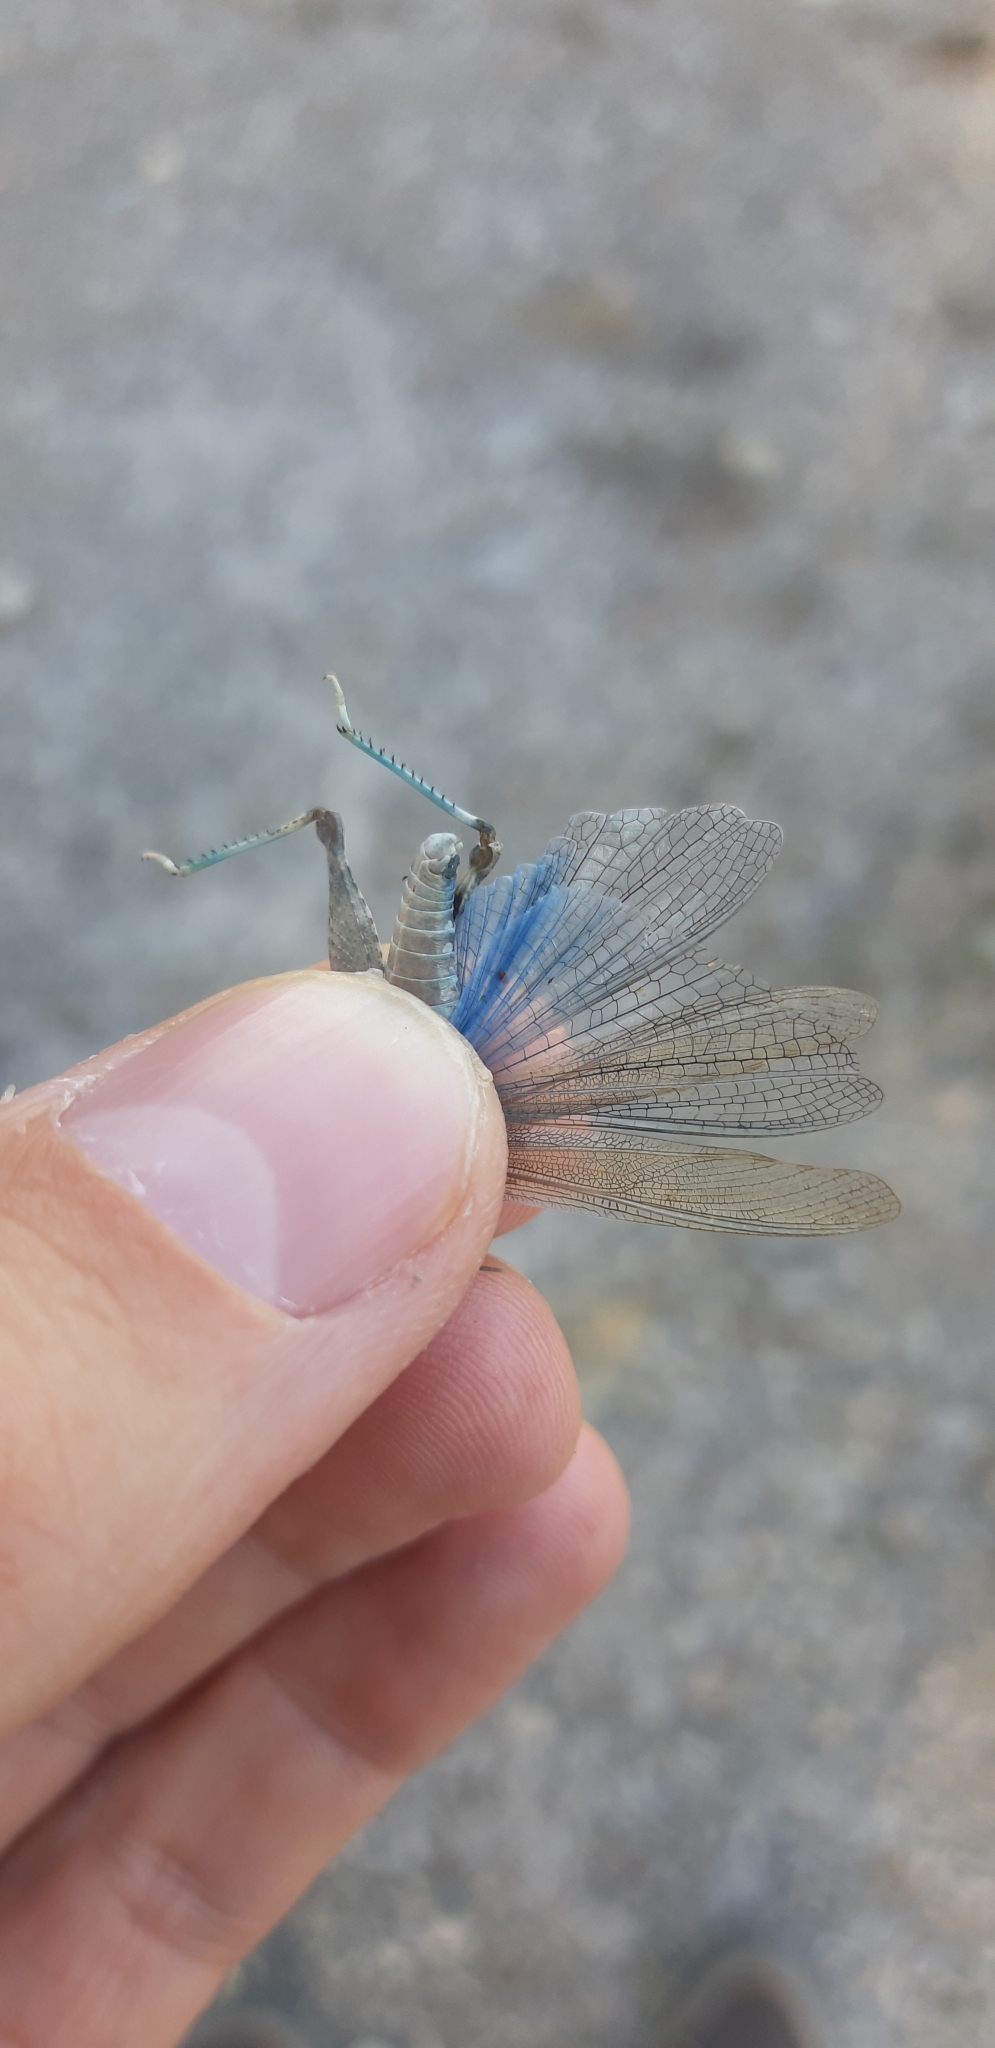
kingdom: Animalia
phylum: Arthropoda
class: Insecta
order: Orthoptera
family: Acrididae
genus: Sphingonotus
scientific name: Sphingonotus caerulans
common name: Blue-winged locust
